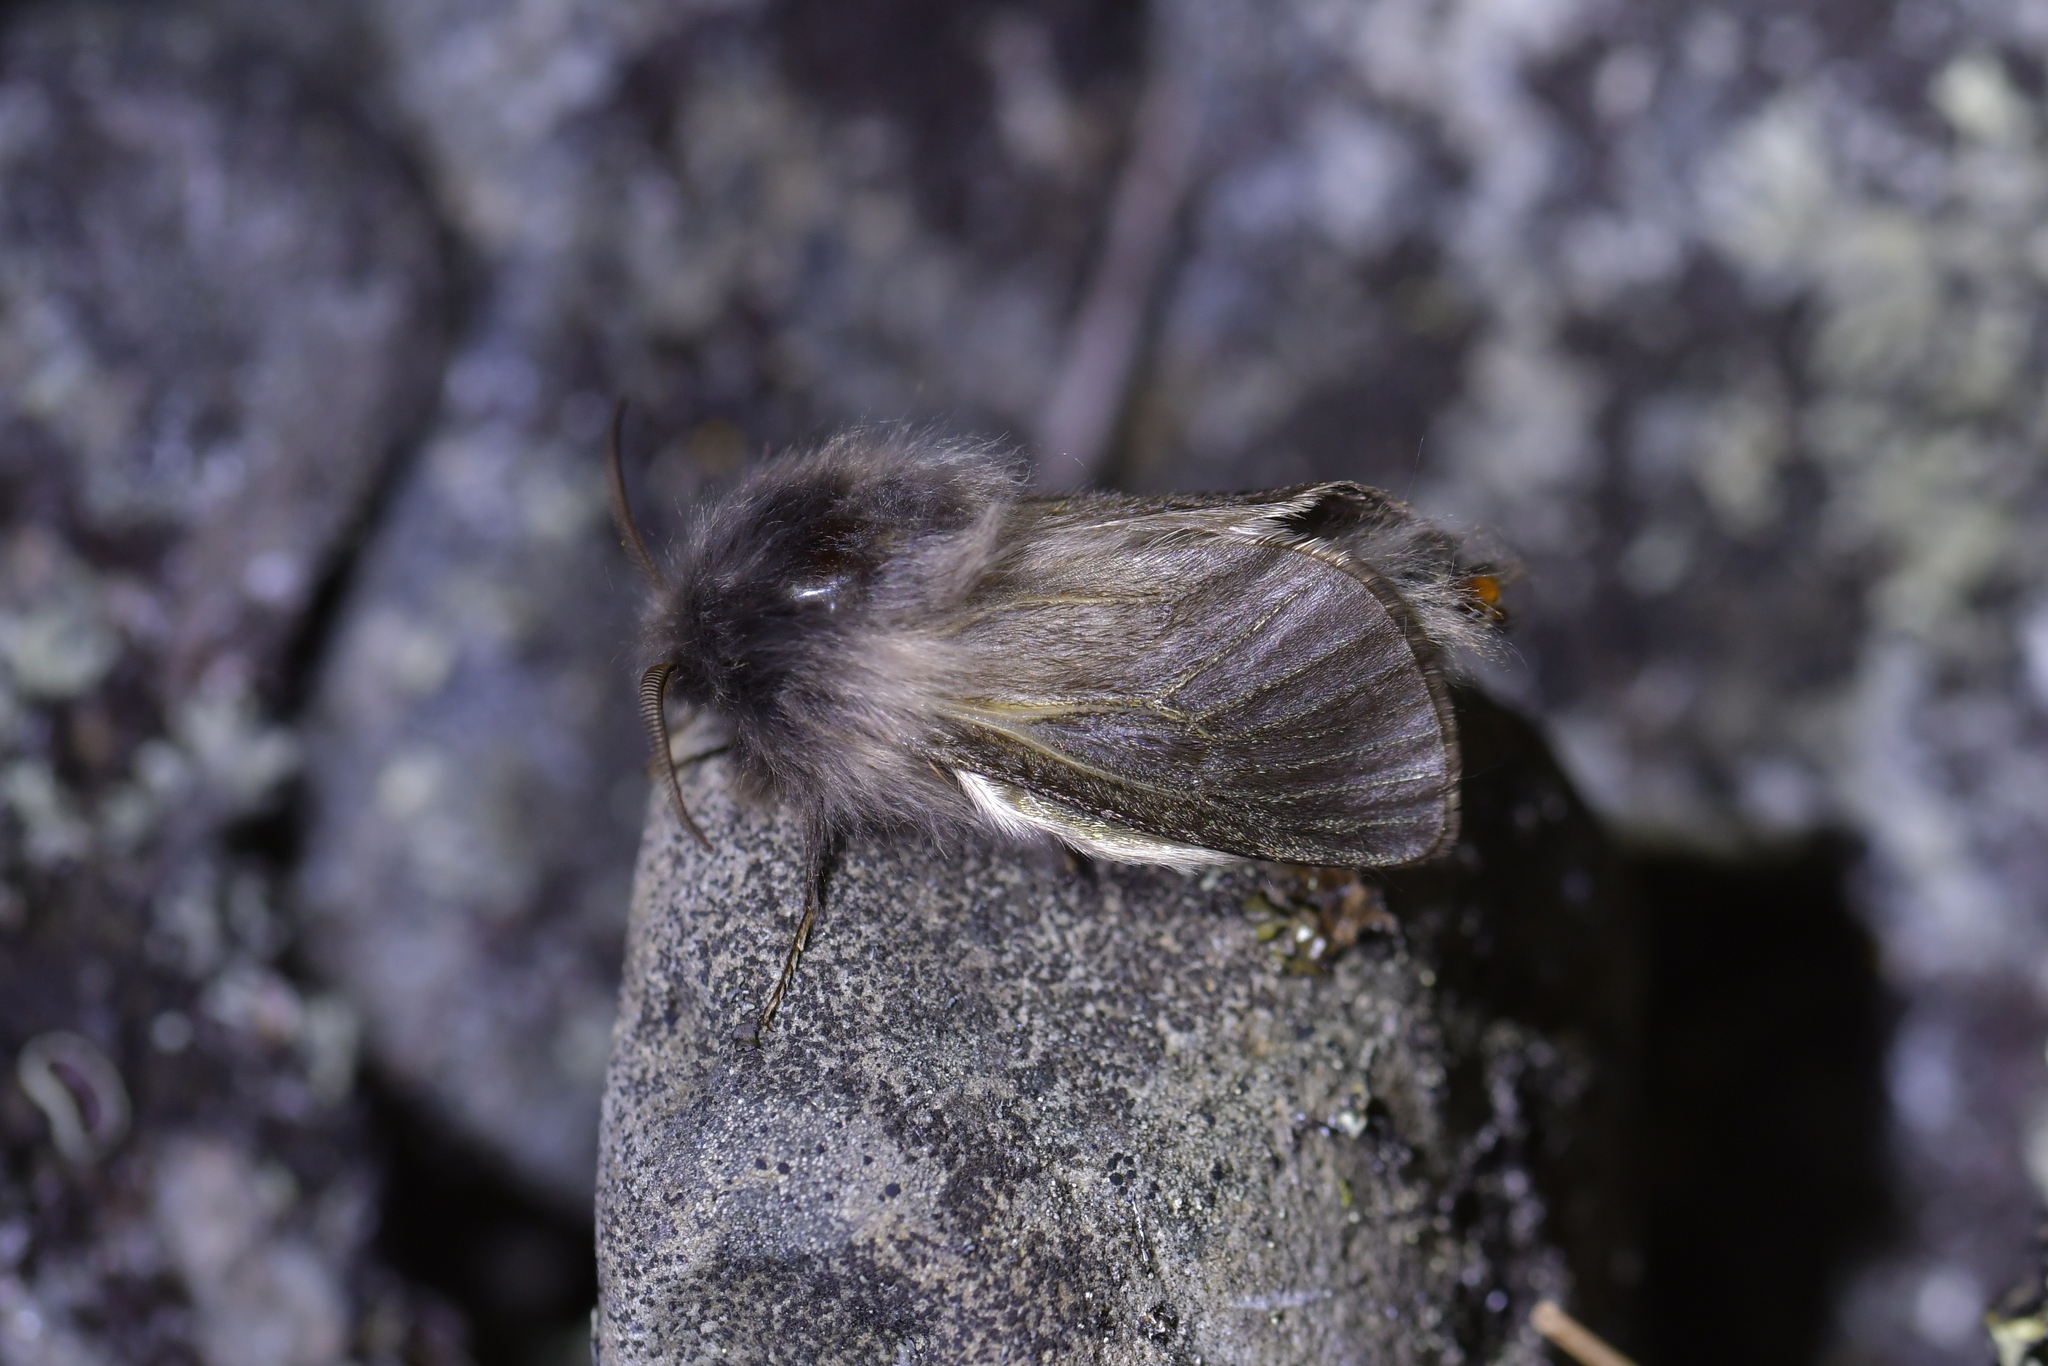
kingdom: Animalia
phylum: Arthropoda
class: Insecta
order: Lepidoptera
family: Psychidae
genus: Orophora
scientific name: Orophora unicolor
